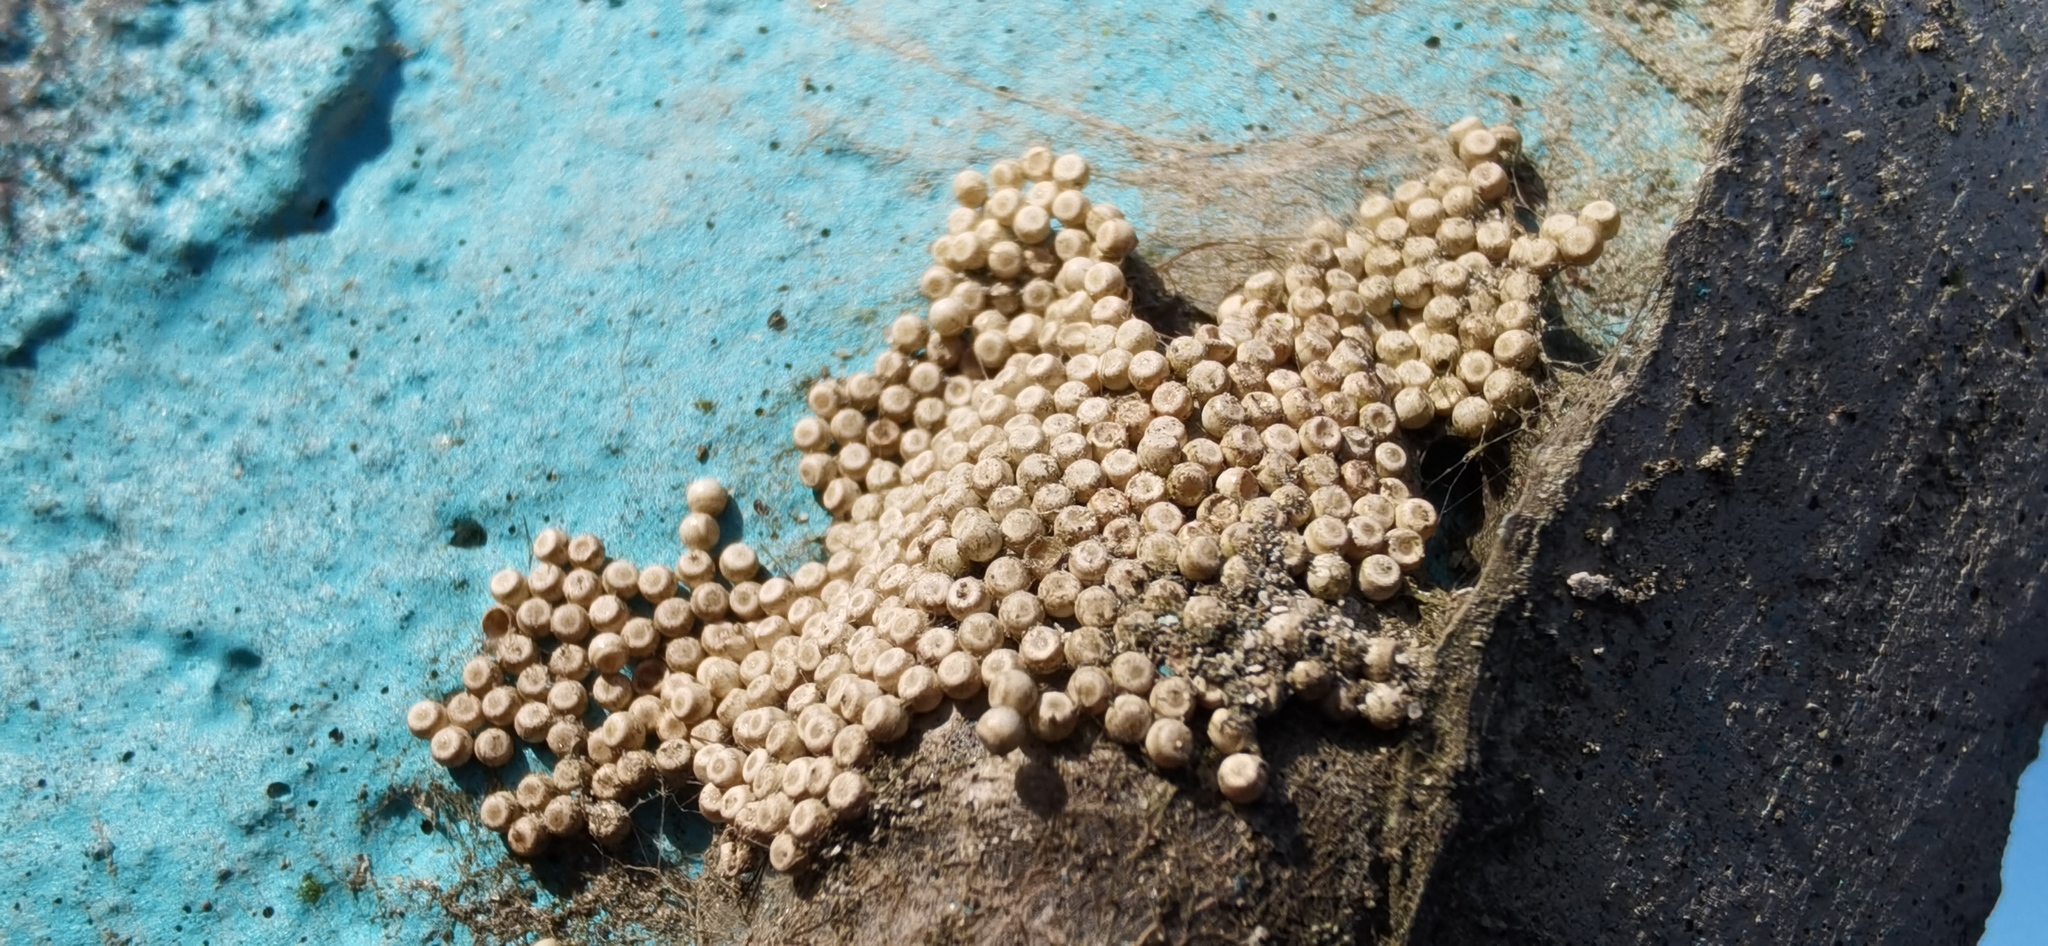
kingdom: Animalia
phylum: Arthropoda
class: Insecta
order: Lepidoptera
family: Erebidae
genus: Orgyia
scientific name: Orgyia antiqua
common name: Vapourer
